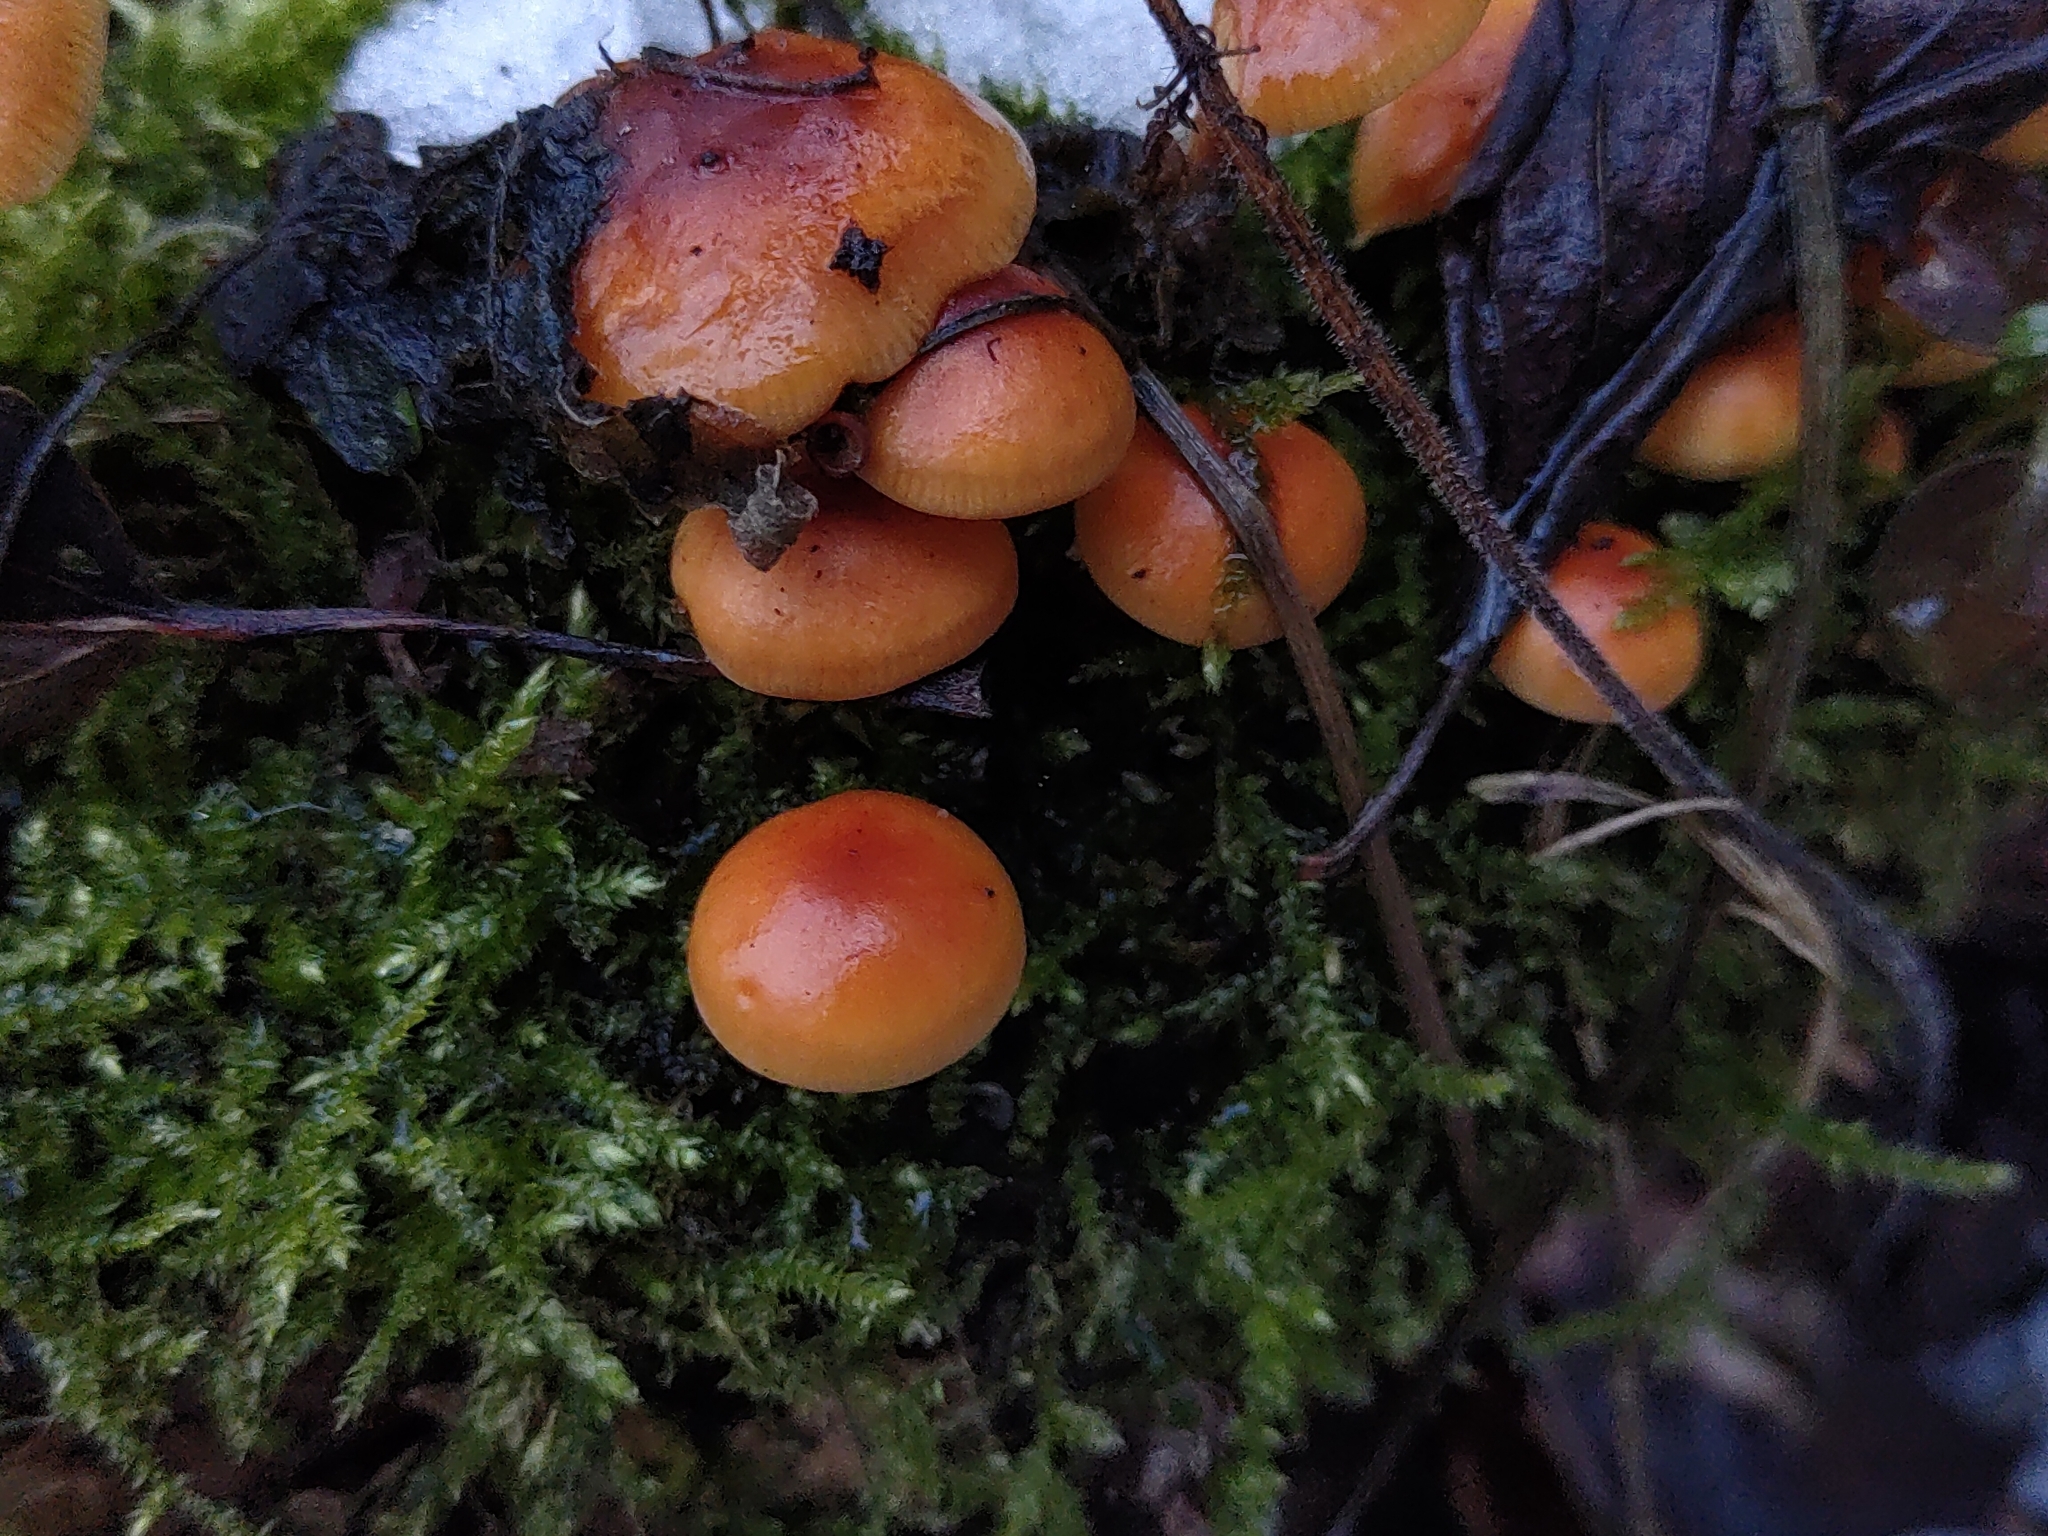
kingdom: Fungi
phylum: Basidiomycota
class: Agaricomycetes
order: Agaricales
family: Physalacriaceae
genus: Flammulina
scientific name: Flammulina
